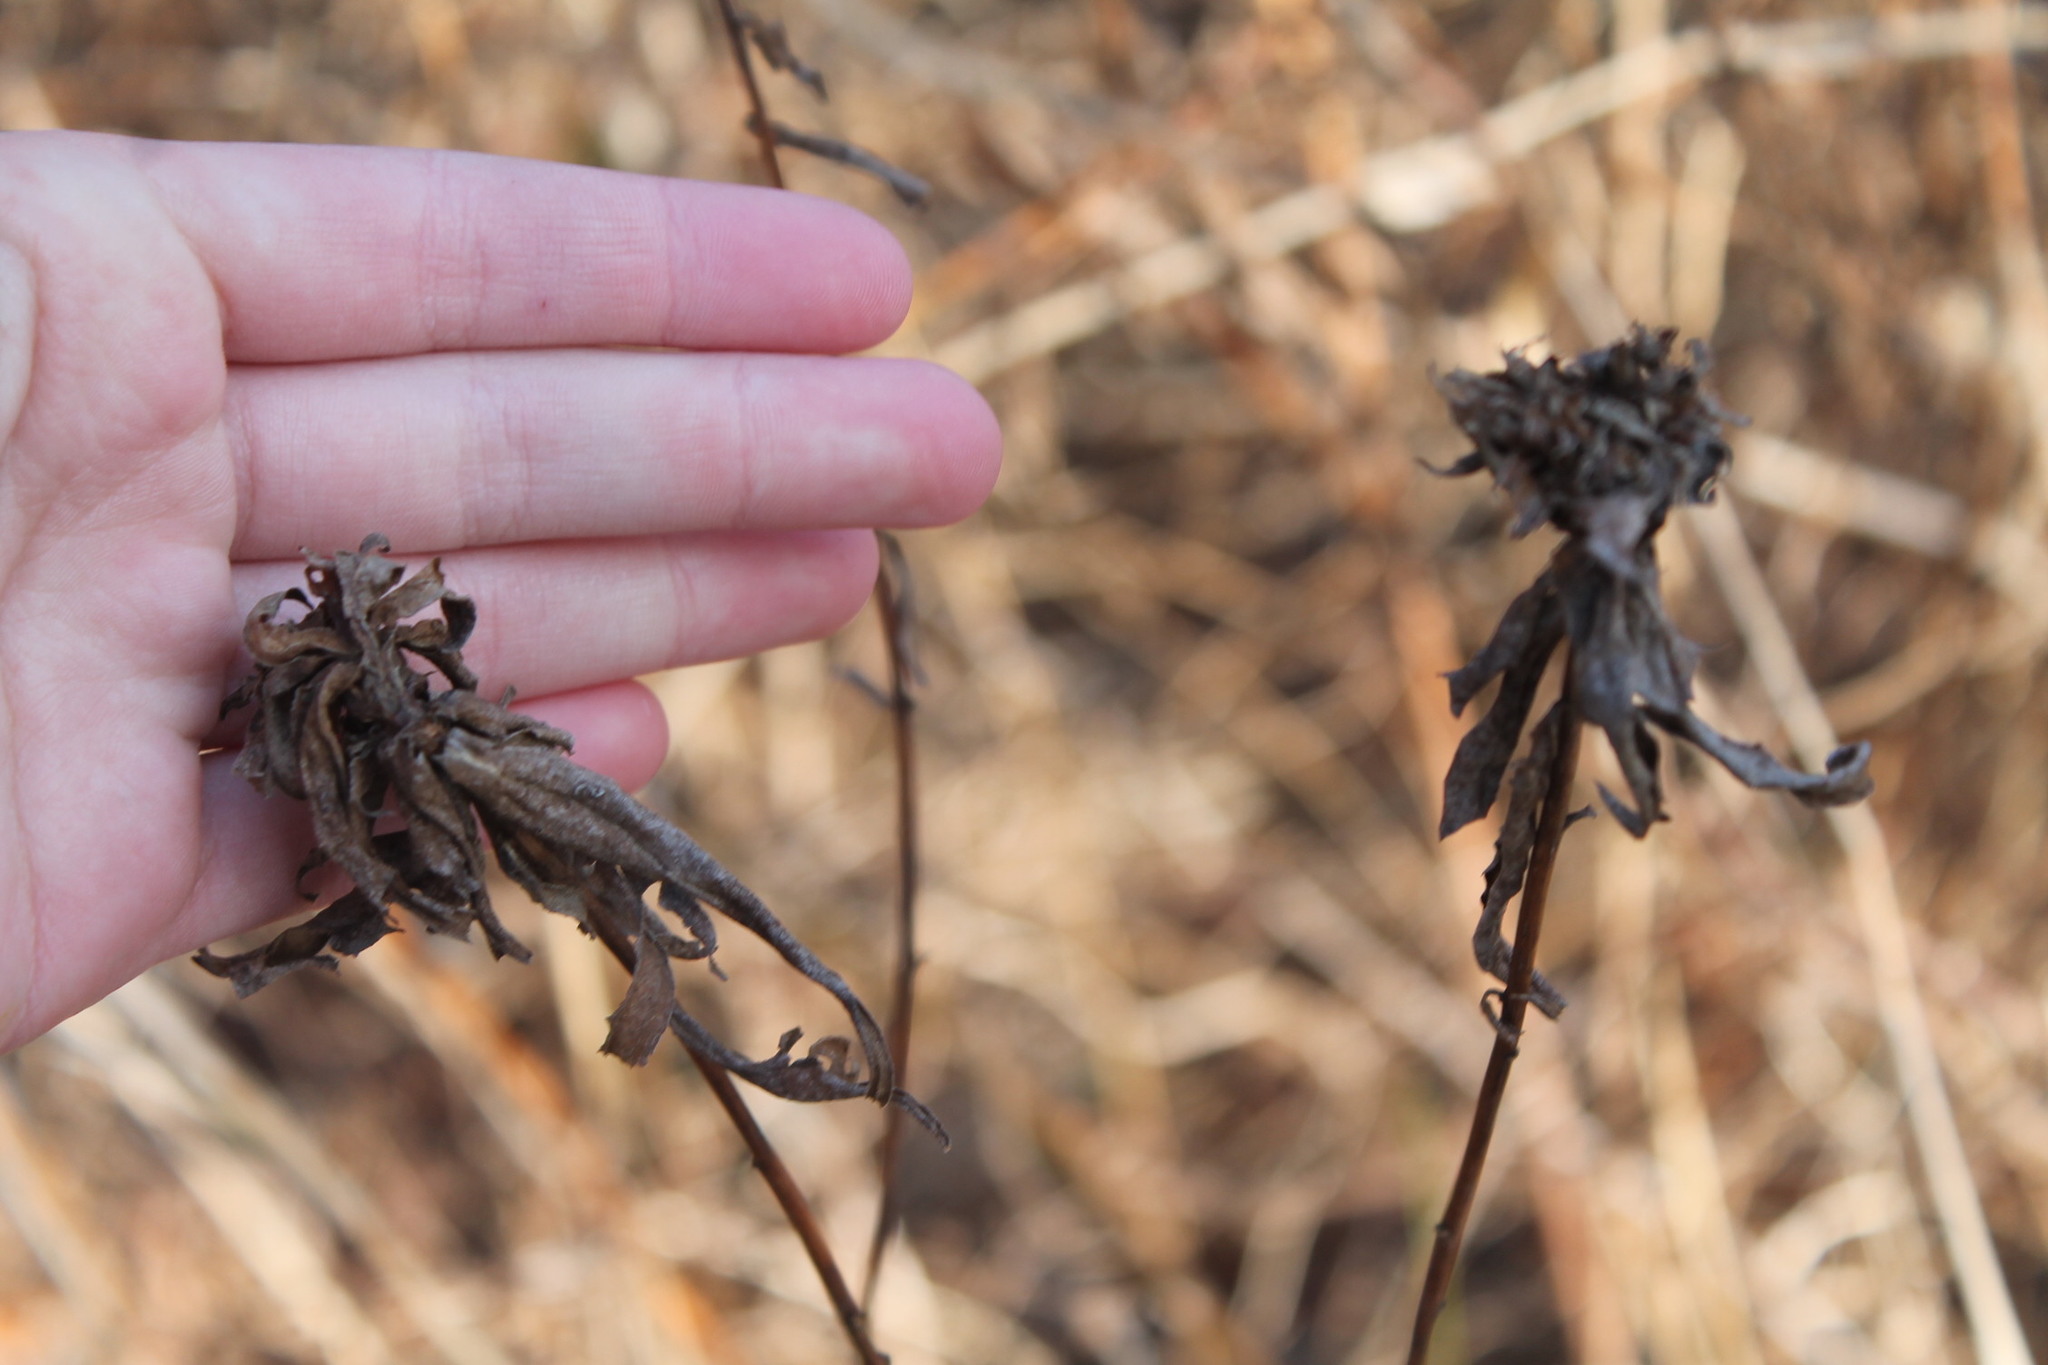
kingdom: Animalia
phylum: Arthropoda
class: Insecta
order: Diptera
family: Cecidomyiidae
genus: Rhopalomyia
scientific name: Rhopalomyia solidaginis
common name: Goldenrod bunch gall midge
